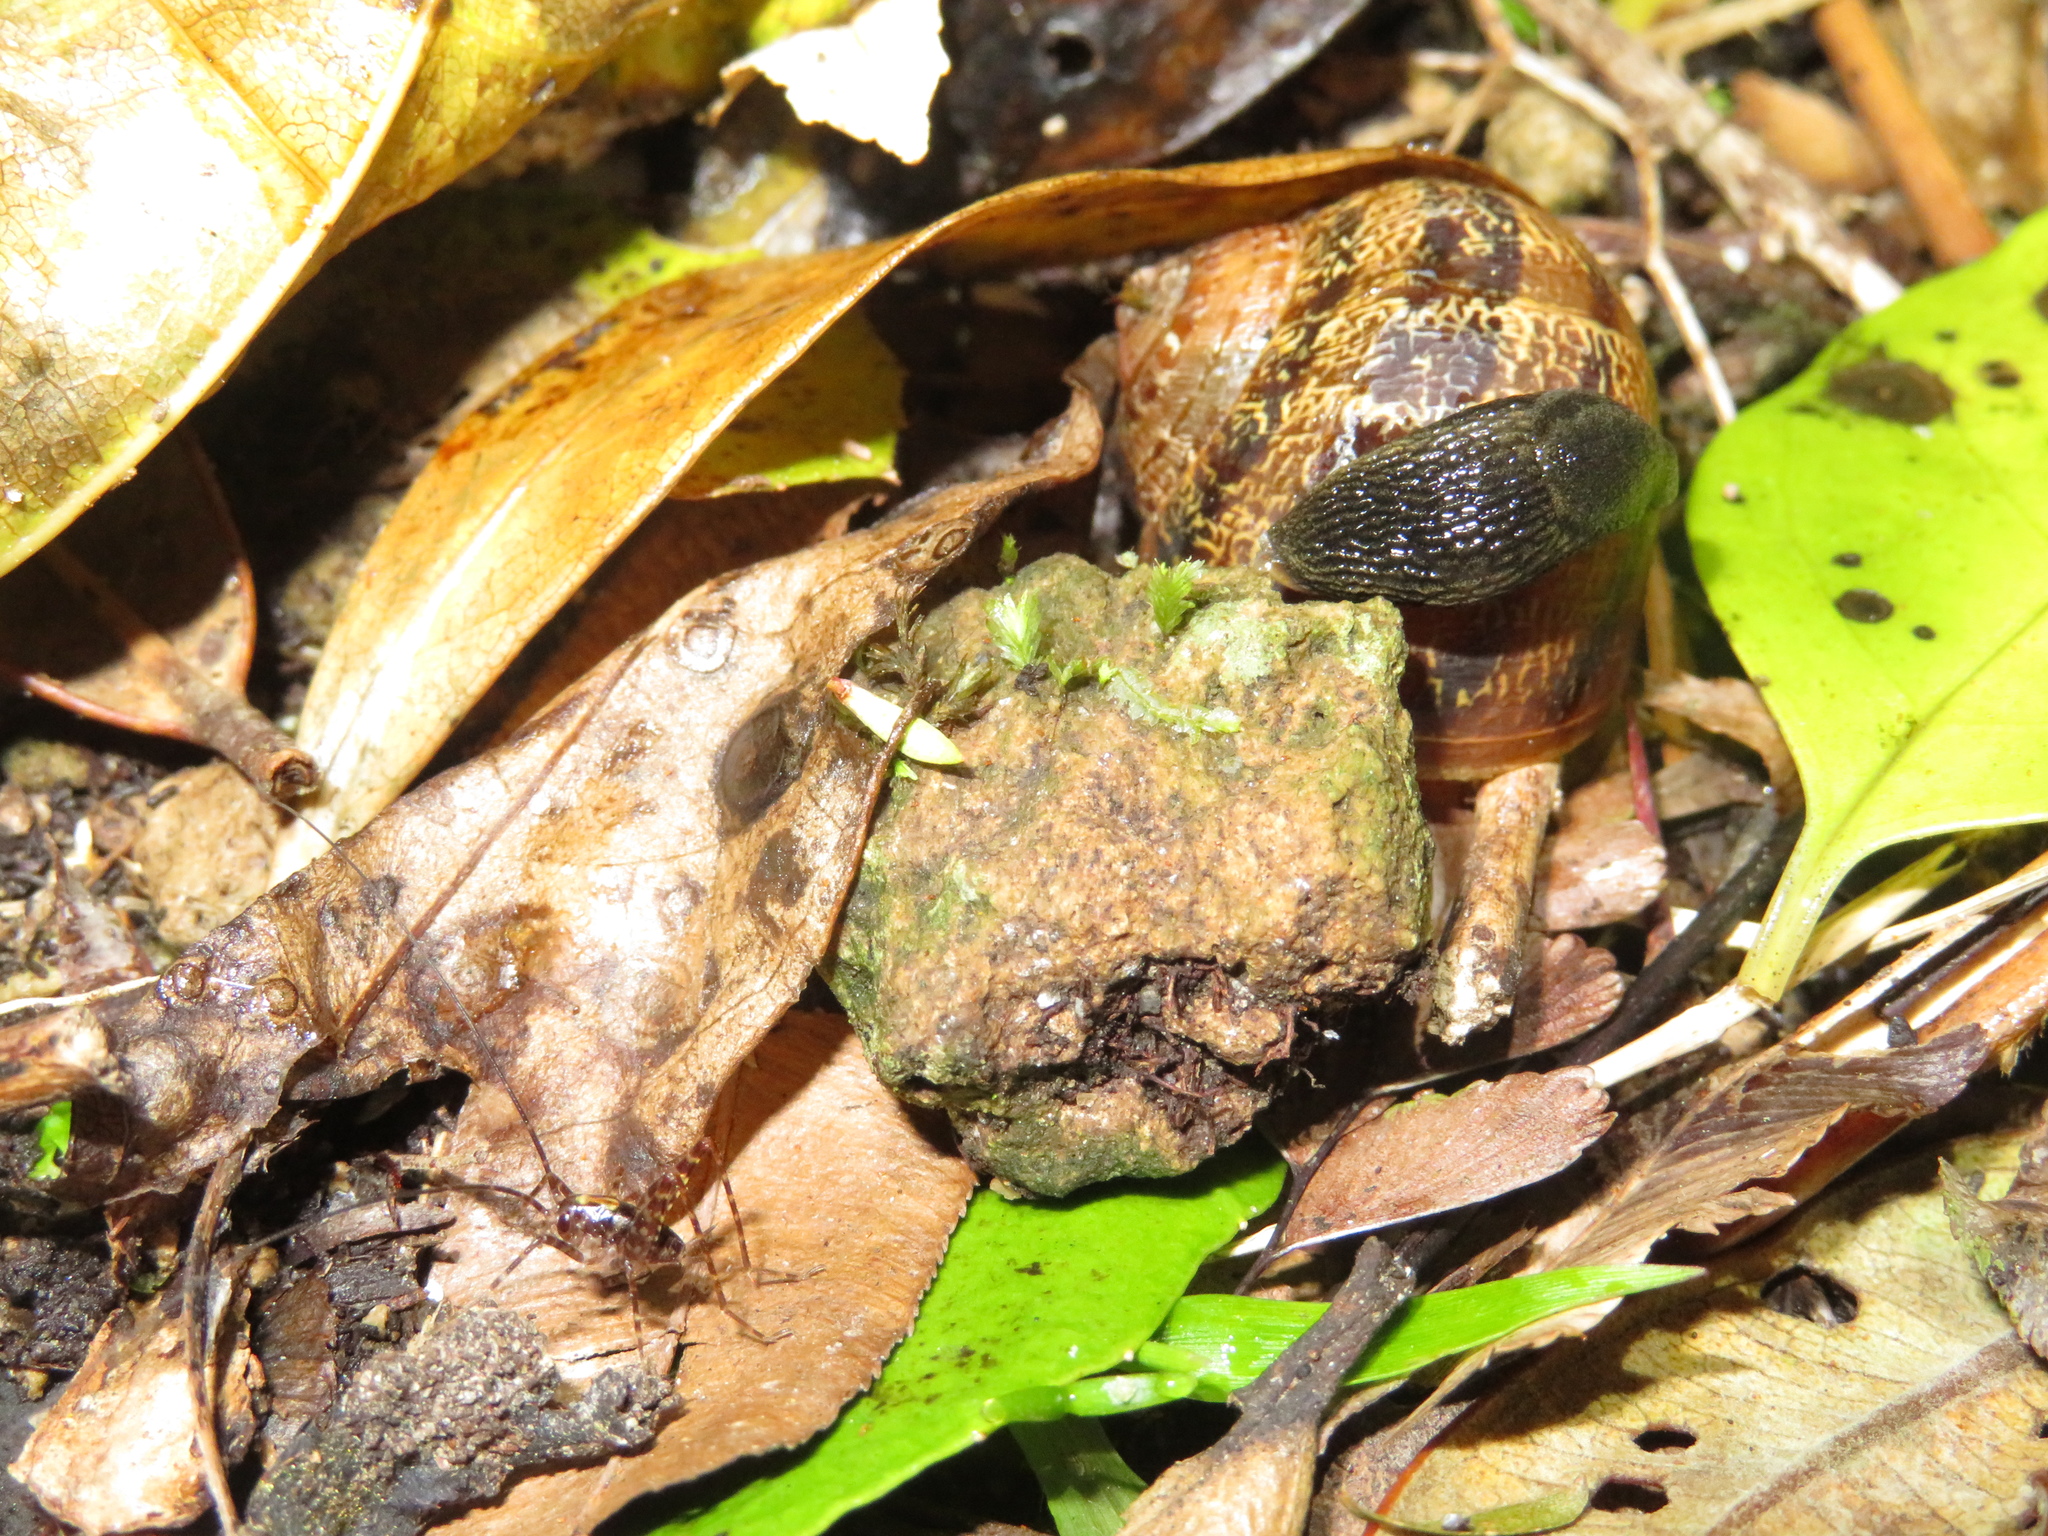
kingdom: Animalia
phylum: Mollusca
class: Gastropoda
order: Stylommatophora
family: Arionidae
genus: Kobeltia
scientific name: Kobeltia
